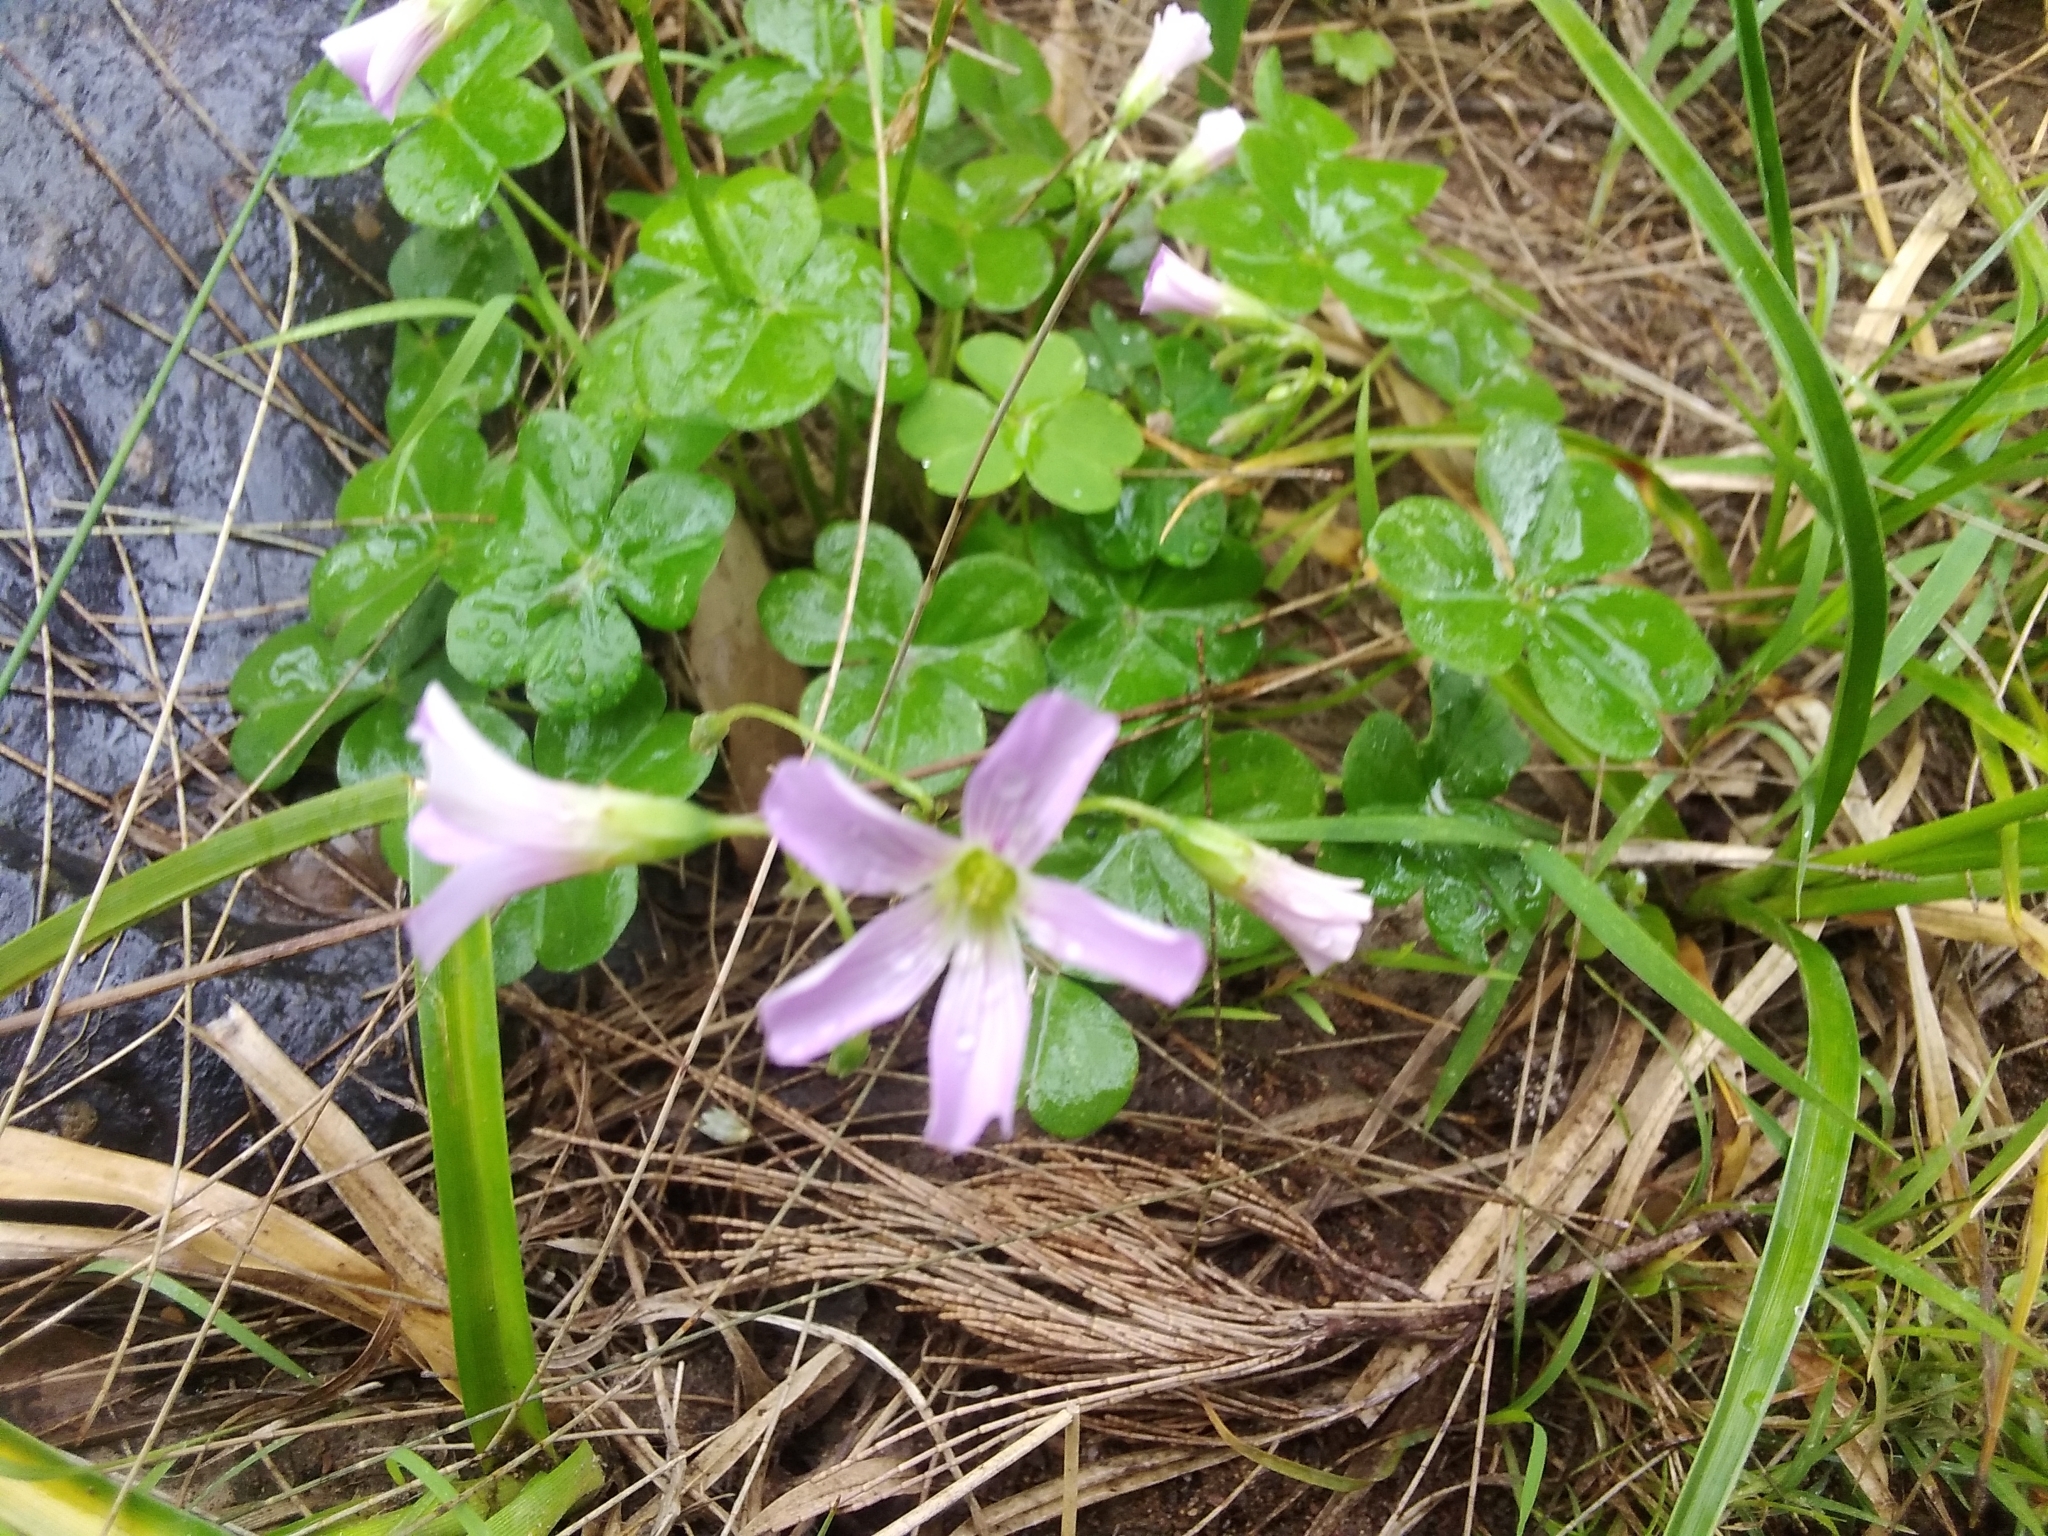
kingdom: Plantae
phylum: Tracheophyta
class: Magnoliopsida
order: Oxalidales
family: Oxalidaceae
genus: Oxalis
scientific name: Oxalis debilis
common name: Large-flowered pink-sorrel
